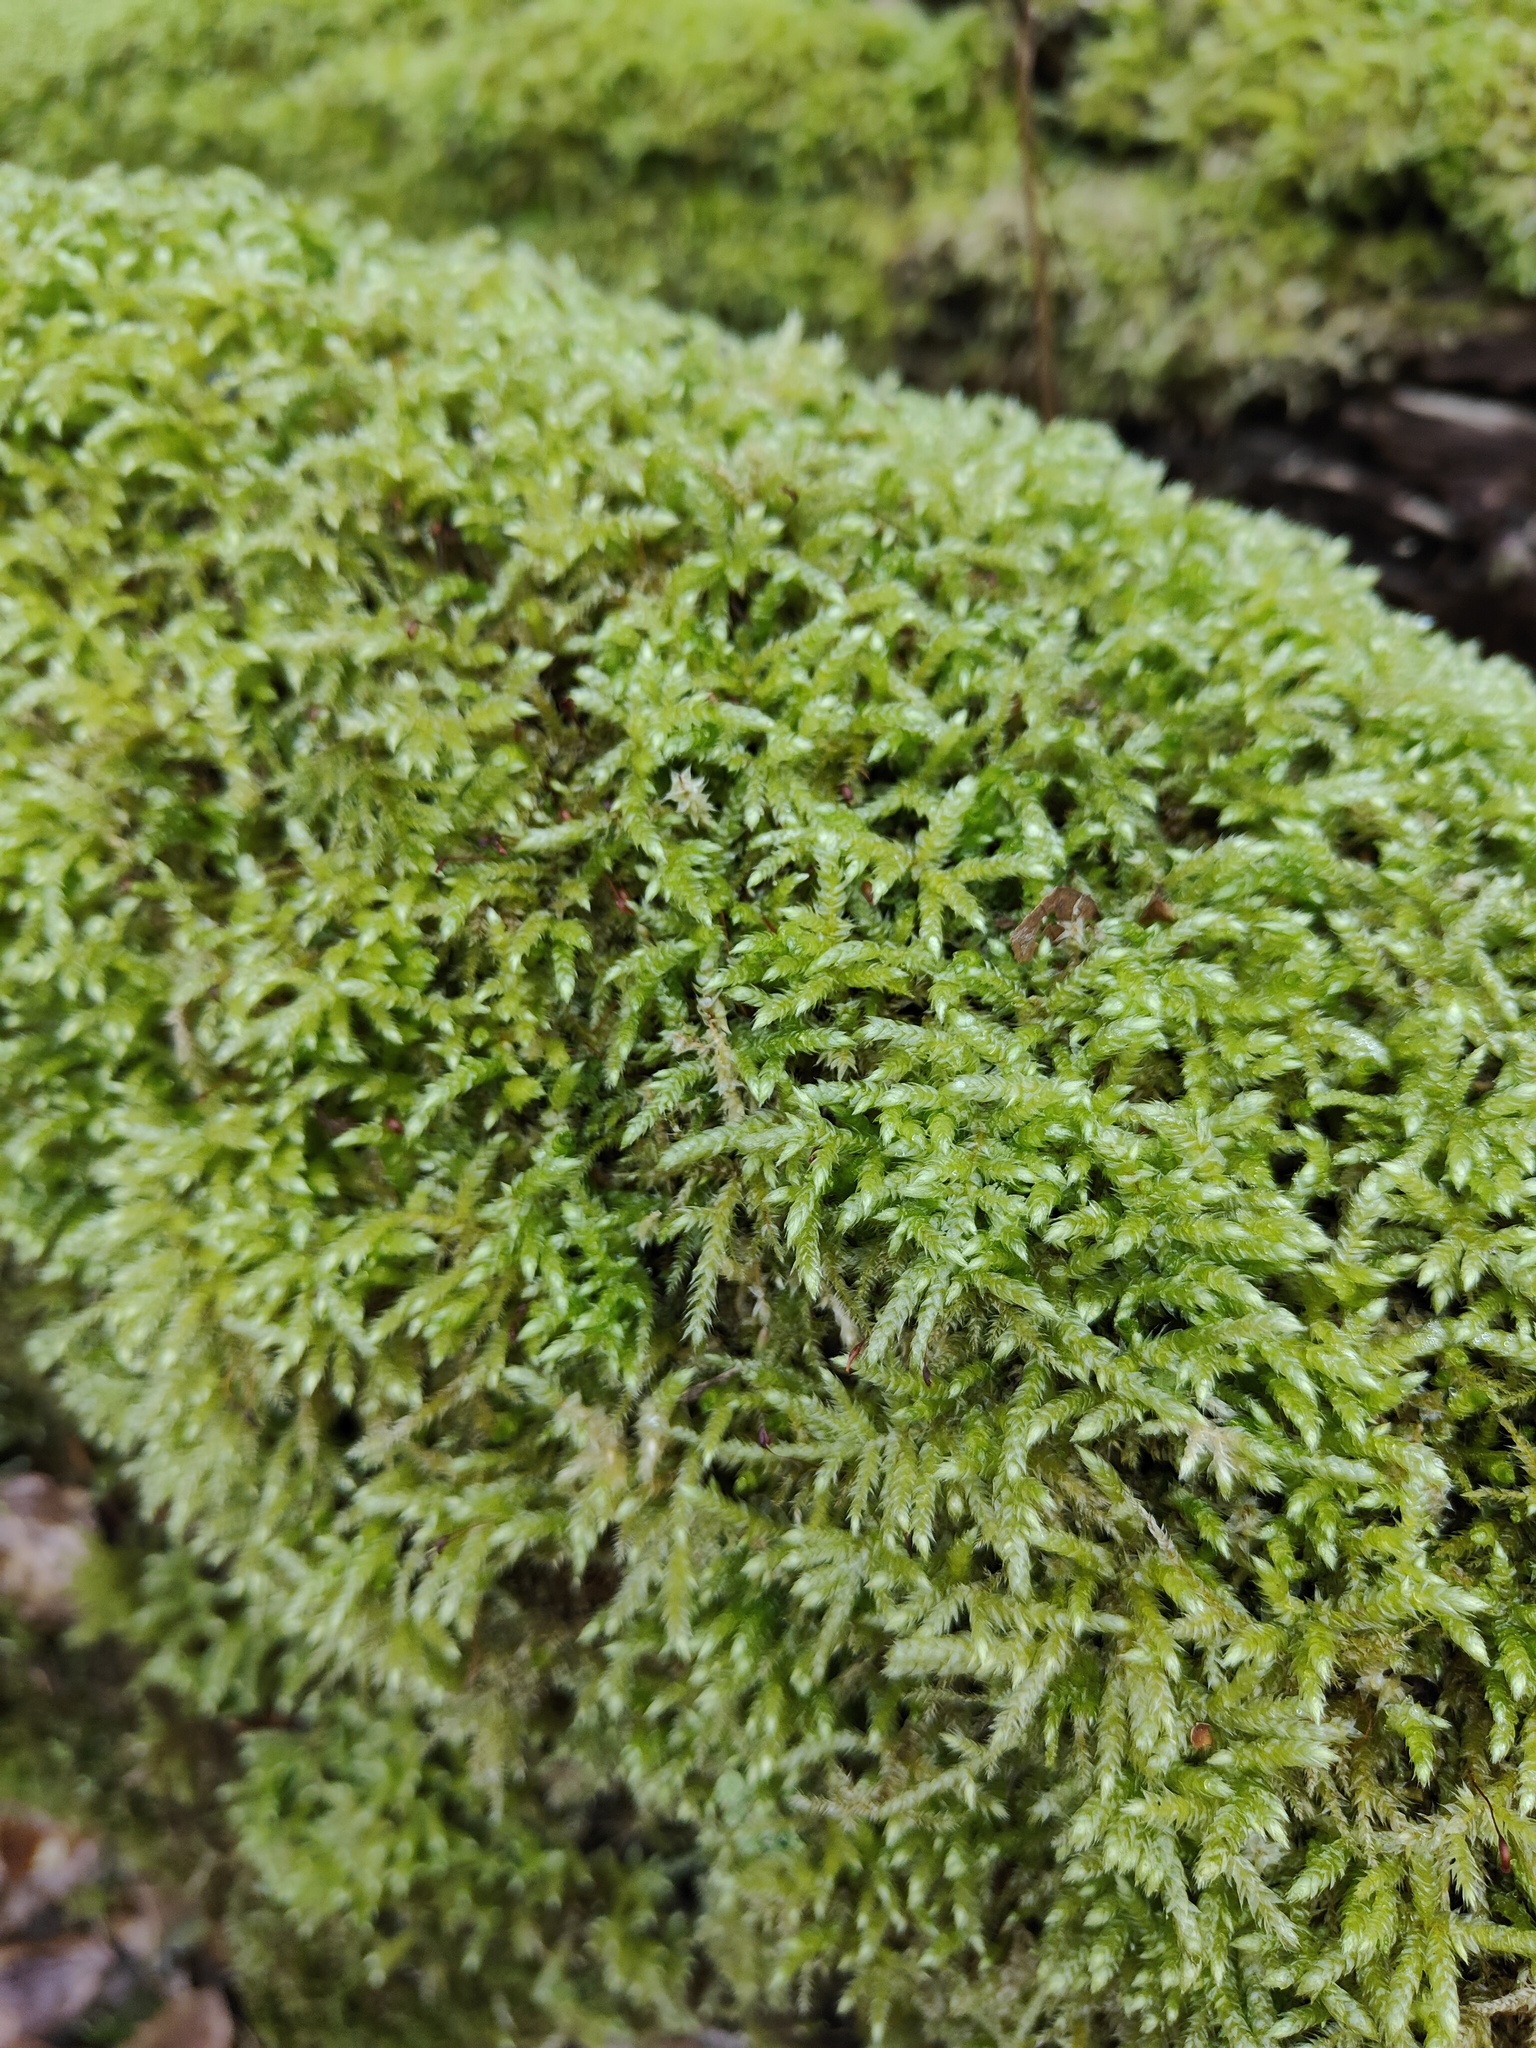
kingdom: Plantae
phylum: Bryophyta
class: Bryopsida
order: Hypnales
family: Brachytheciaceae
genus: Brachythecium
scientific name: Brachythecium rutabulum
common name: Rough-stalked feather-moss
